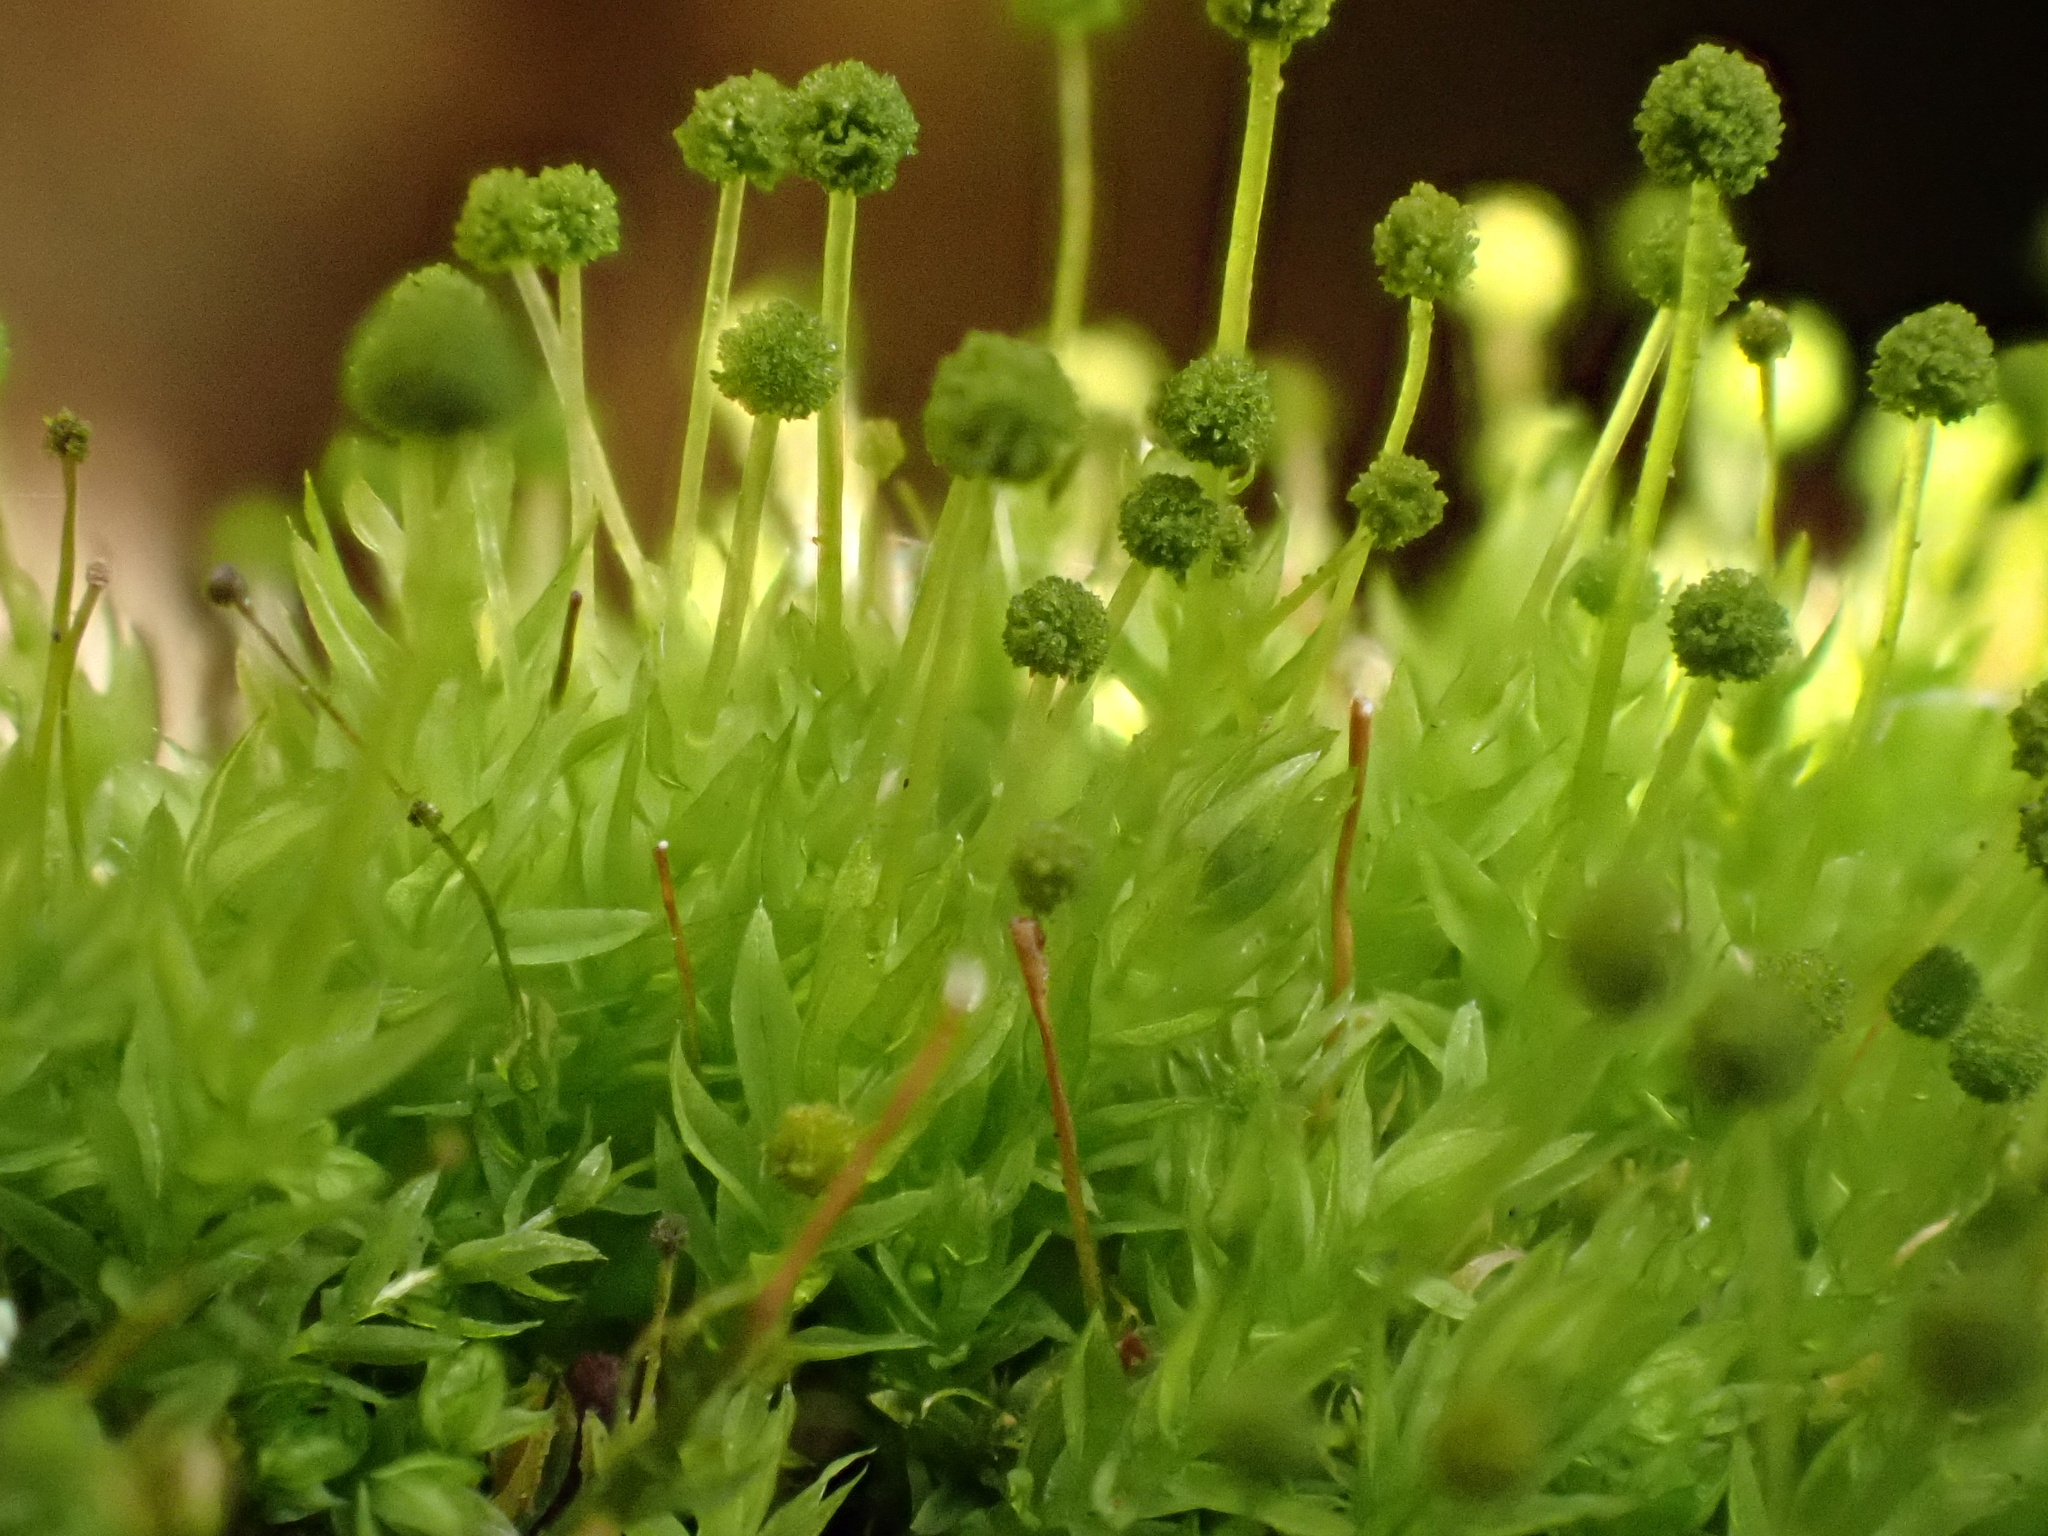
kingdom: Plantae
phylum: Bryophyta
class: Bryopsida
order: Aulacomniales
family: Aulacomniaceae
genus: Aulacomnium
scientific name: Aulacomnium androgynum
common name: Little groove moss
